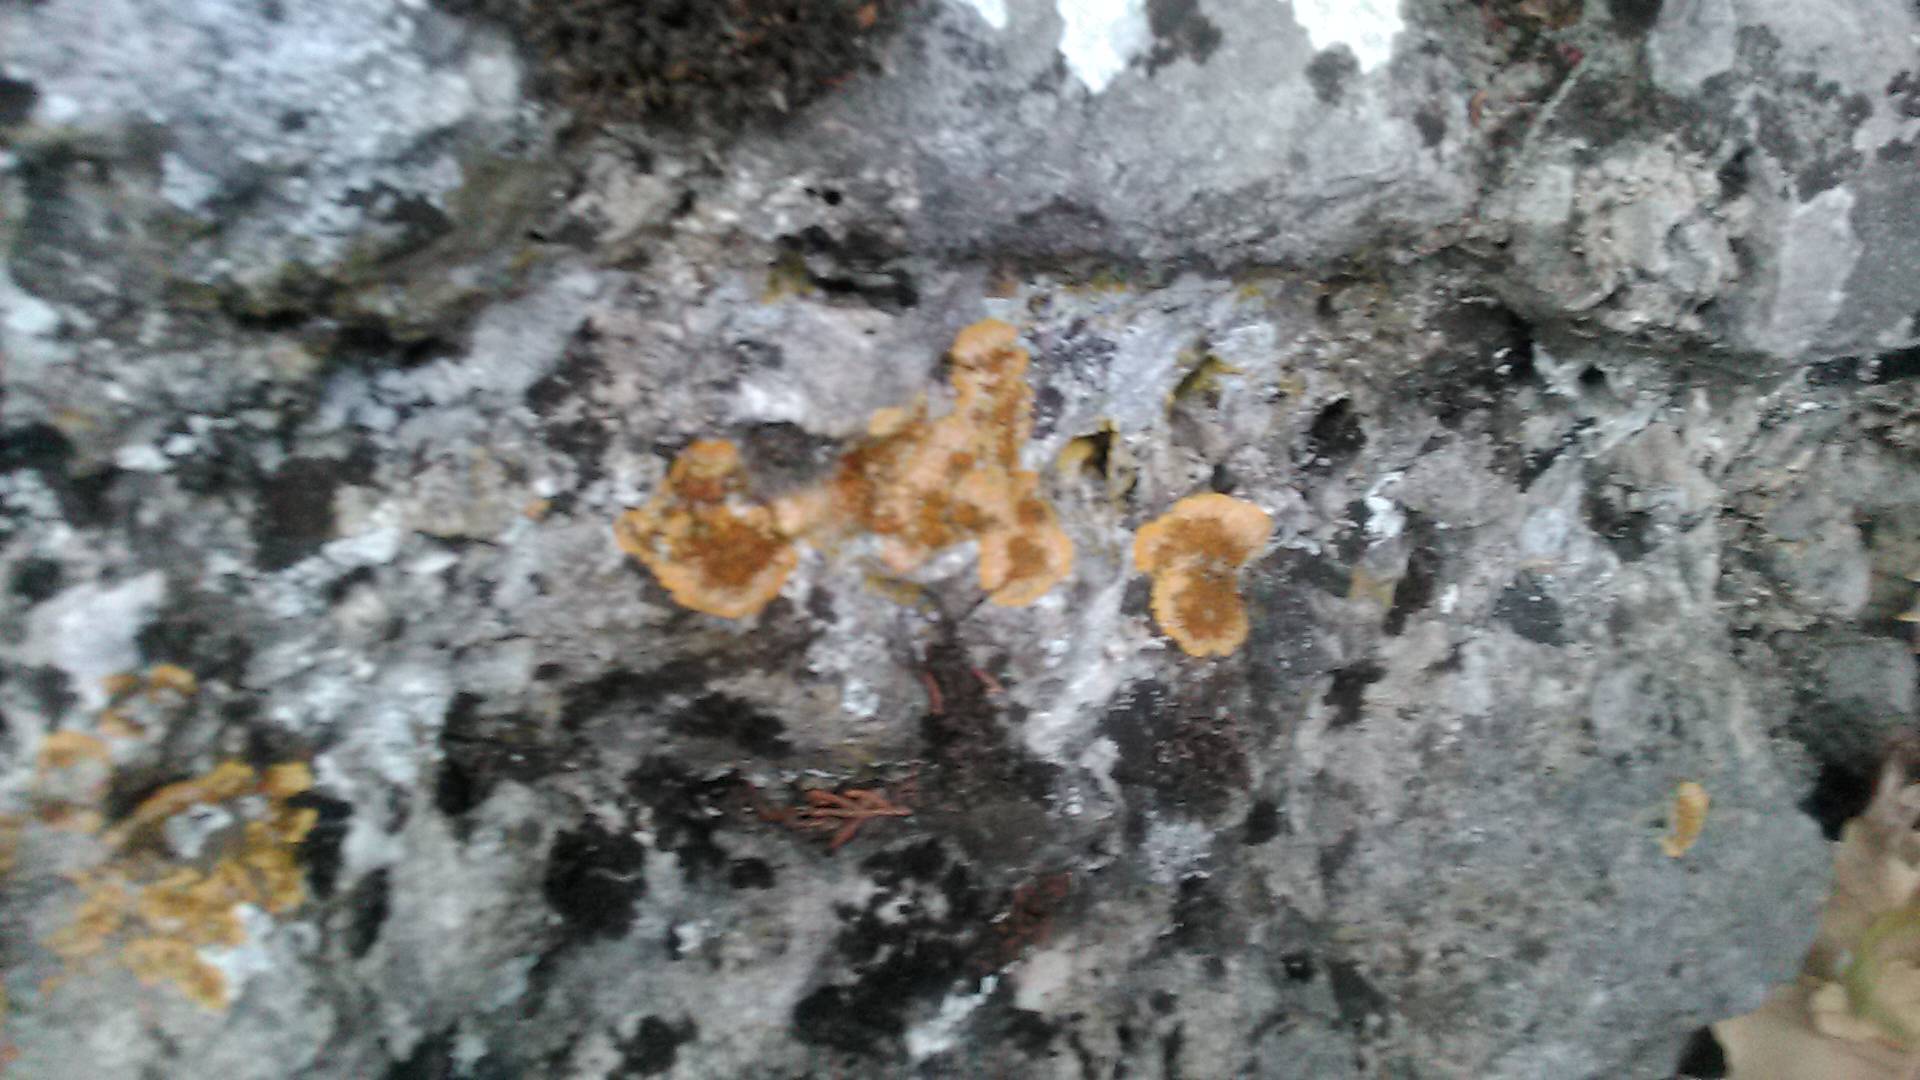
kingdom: Fungi
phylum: Ascomycota
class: Lecanoromycetes
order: Teloschistales
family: Teloschistaceae
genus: Variospora
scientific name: Variospora aurantia
